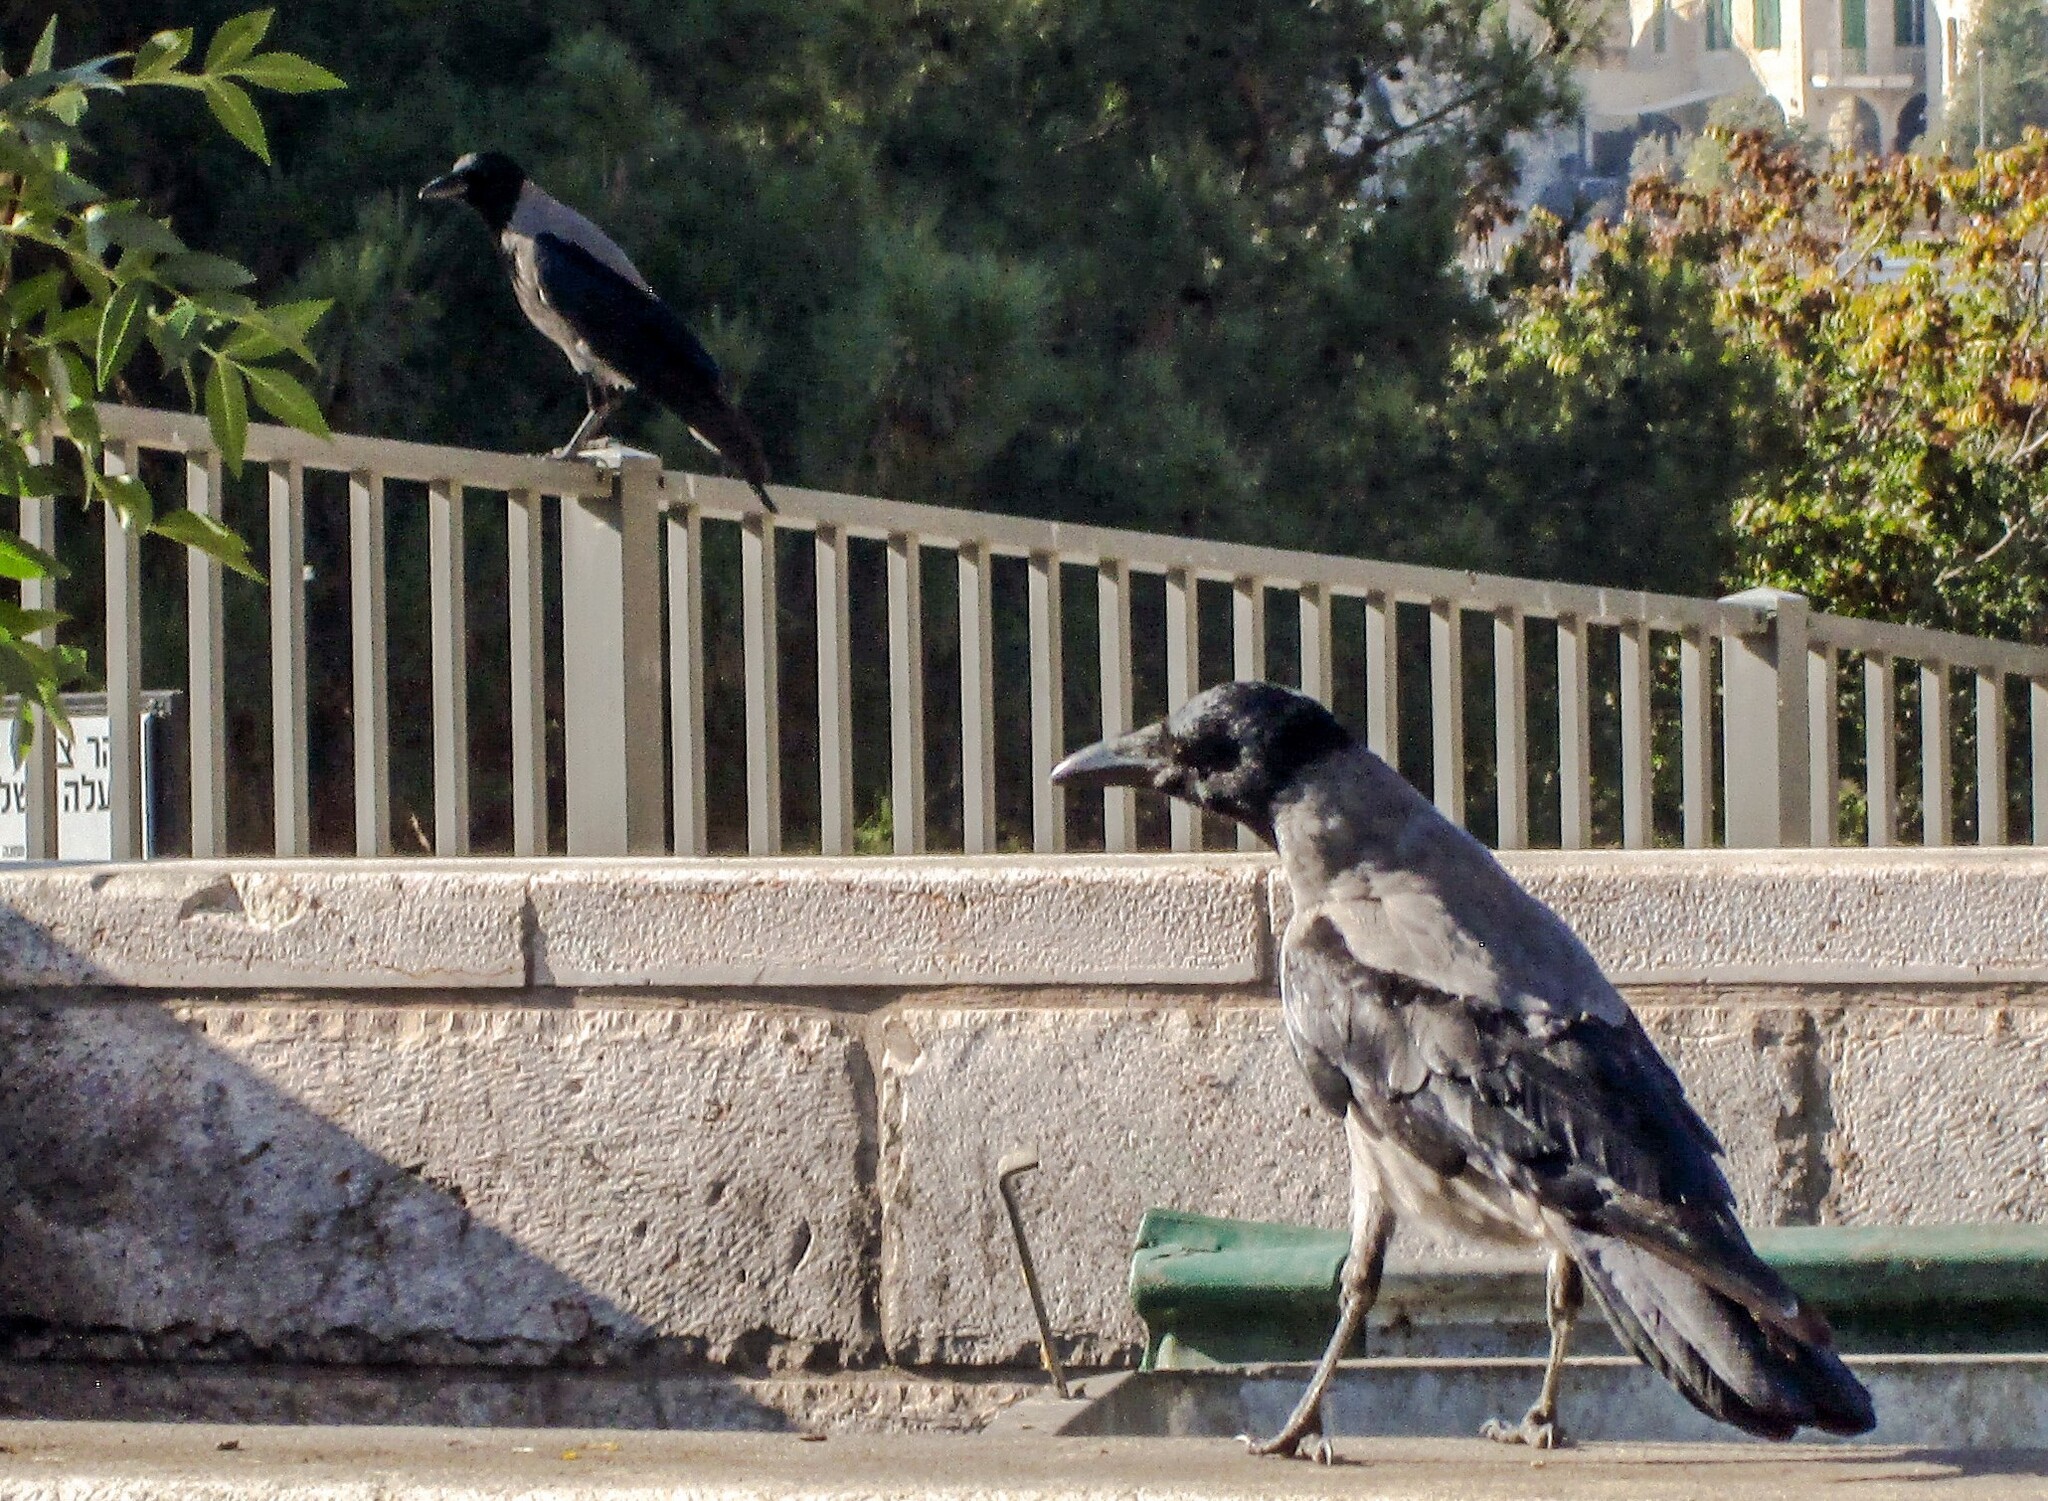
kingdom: Animalia
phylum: Chordata
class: Aves
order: Passeriformes
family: Corvidae
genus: Corvus
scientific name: Corvus cornix
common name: Hooded crow
